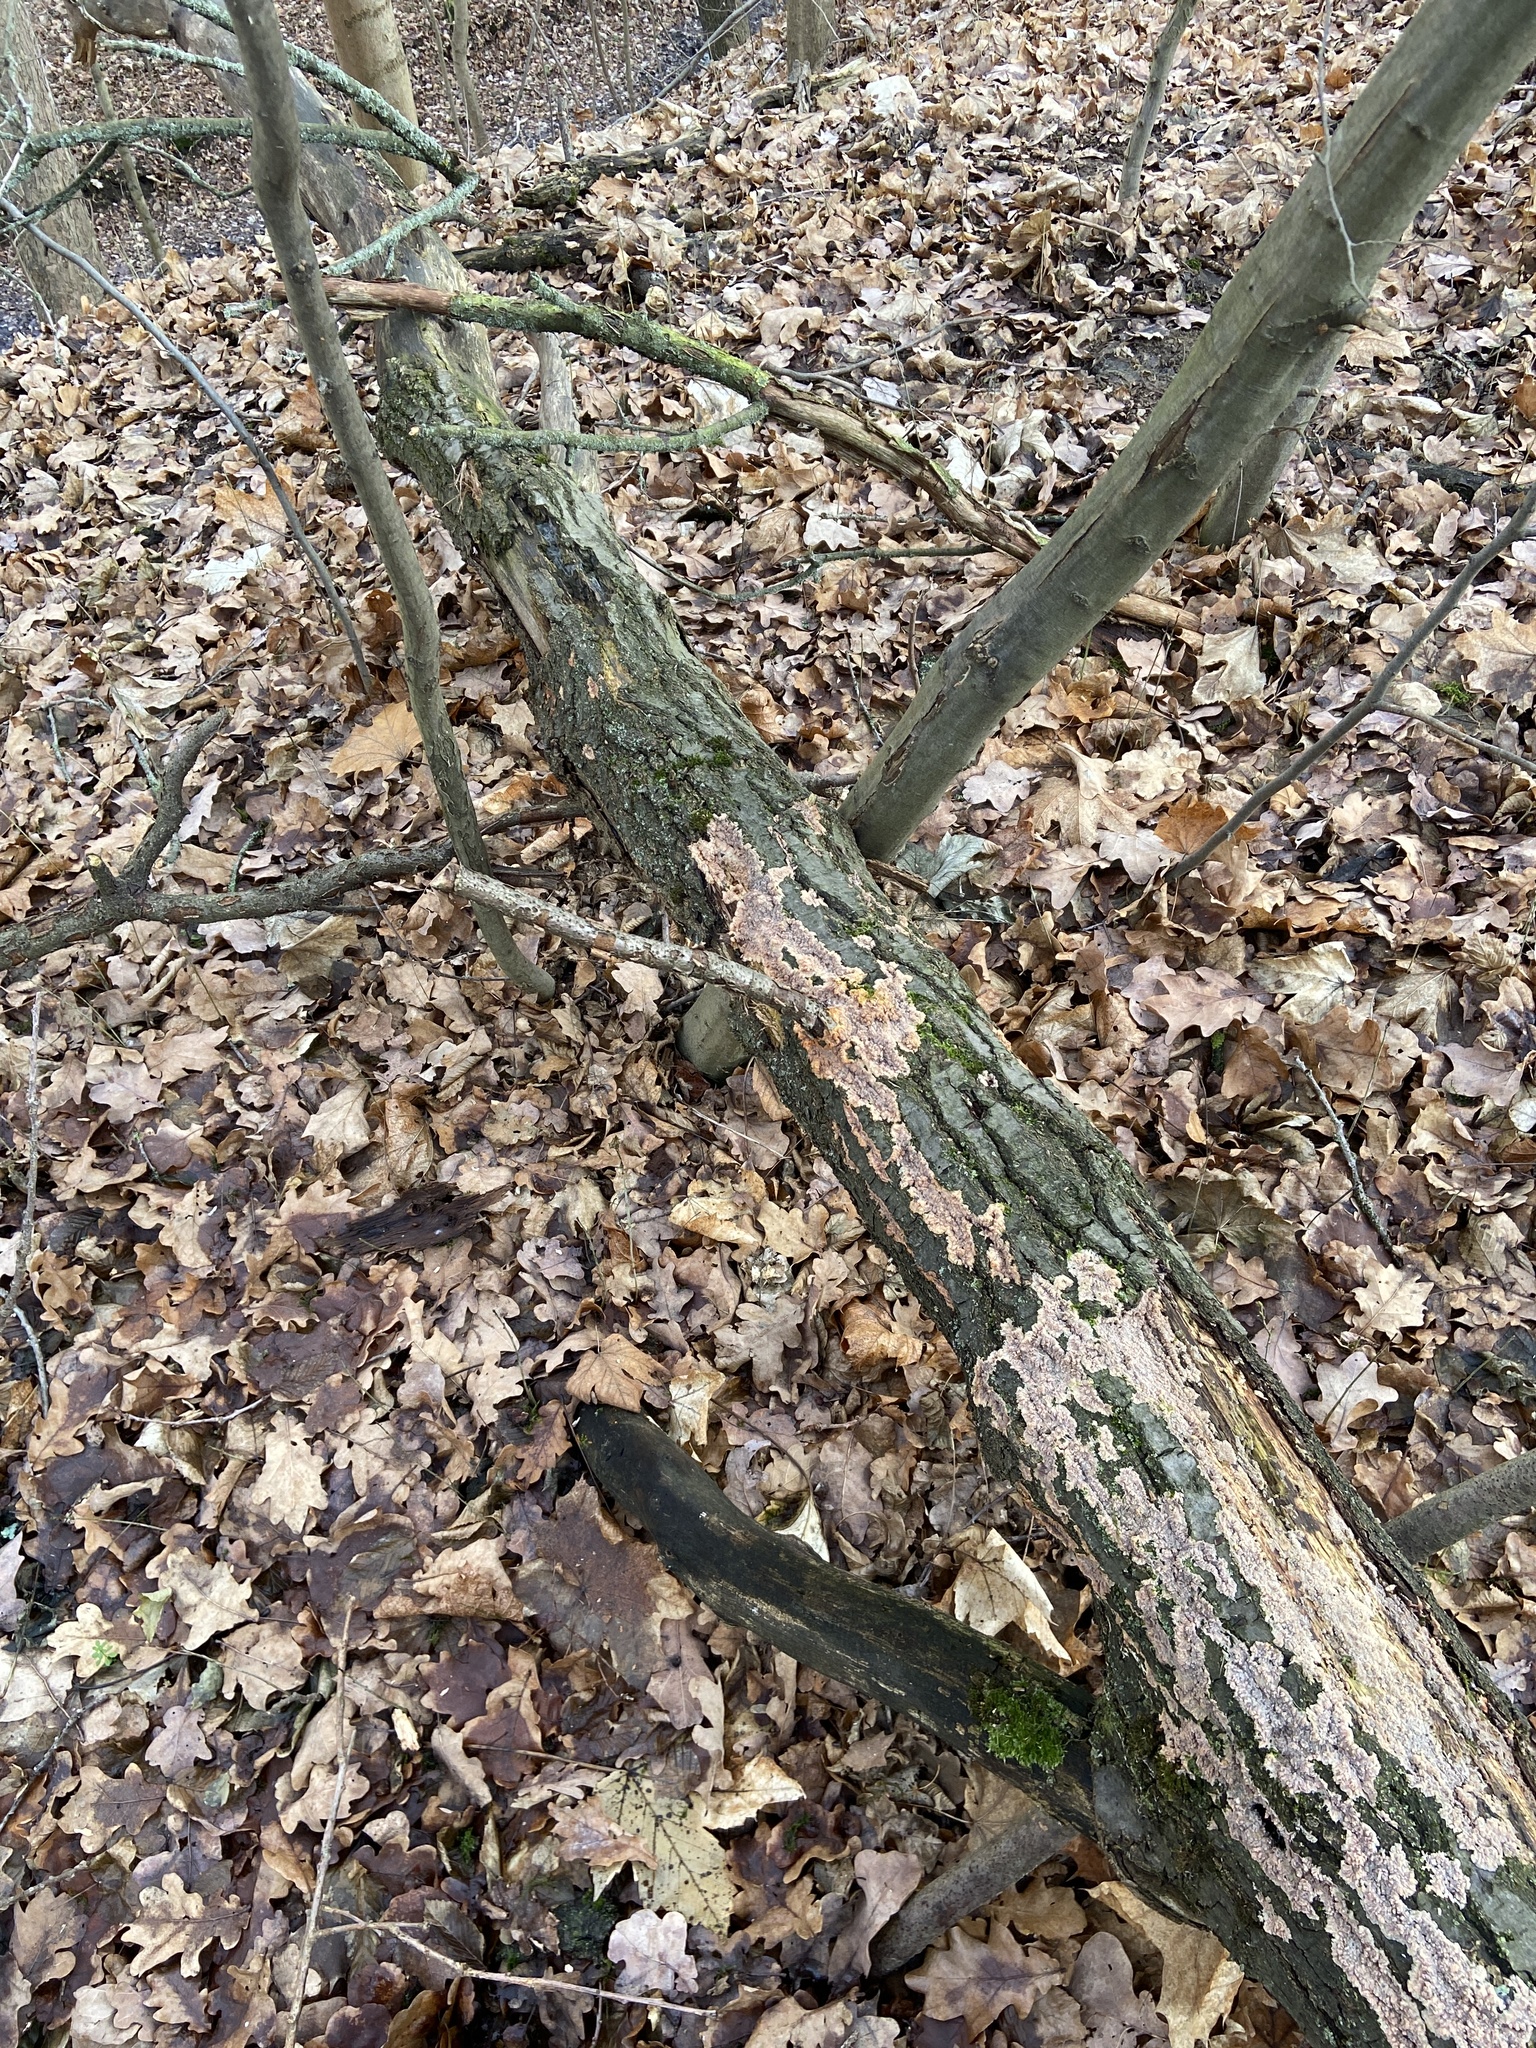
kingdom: Fungi
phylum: Basidiomycota
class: Agaricomycetes
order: Polyporales
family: Meruliaceae
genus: Phlebia
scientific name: Phlebia radiata
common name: Wrinkled crust
